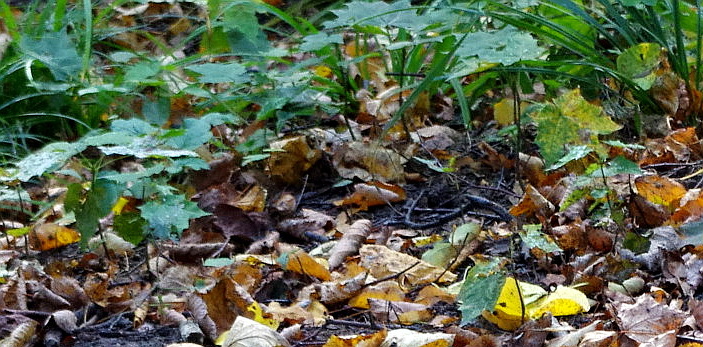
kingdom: Plantae
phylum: Tracheophyta
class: Magnoliopsida
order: Sapindales
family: Sapindaceae
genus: Acer
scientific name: Acer platanoides
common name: Norway maple
